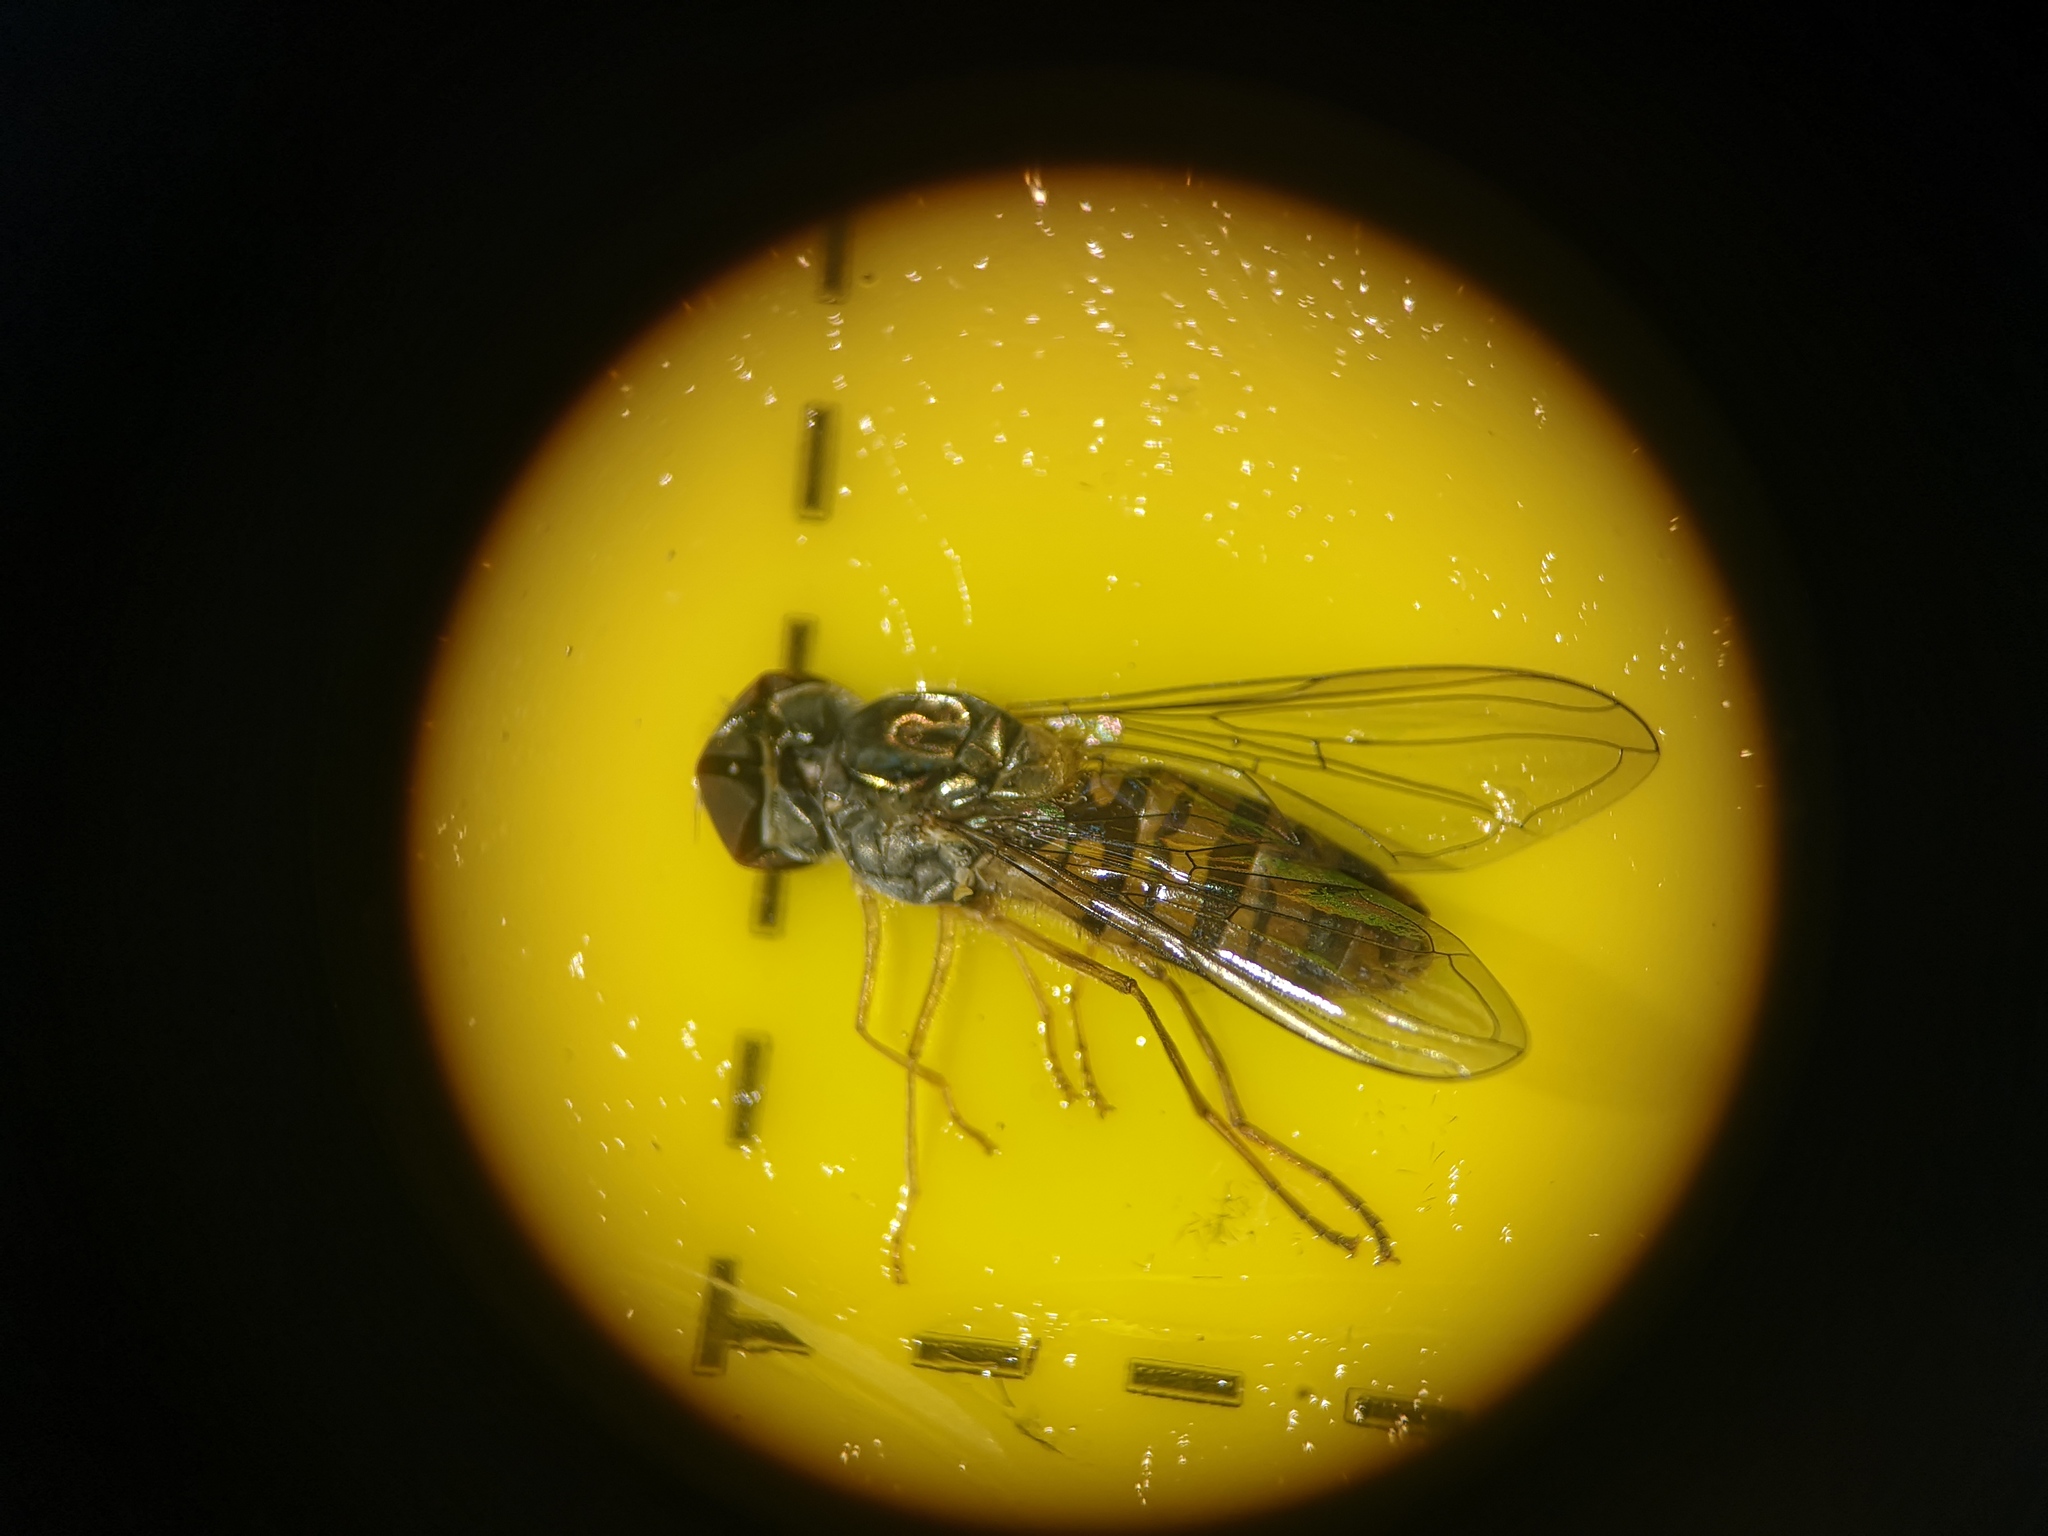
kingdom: Animalia
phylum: Arthropoda
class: Insecta
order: Diptera
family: Syrphidae
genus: Episyrphus
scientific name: Episyrphus balteatus
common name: Marmalade hoverfly
